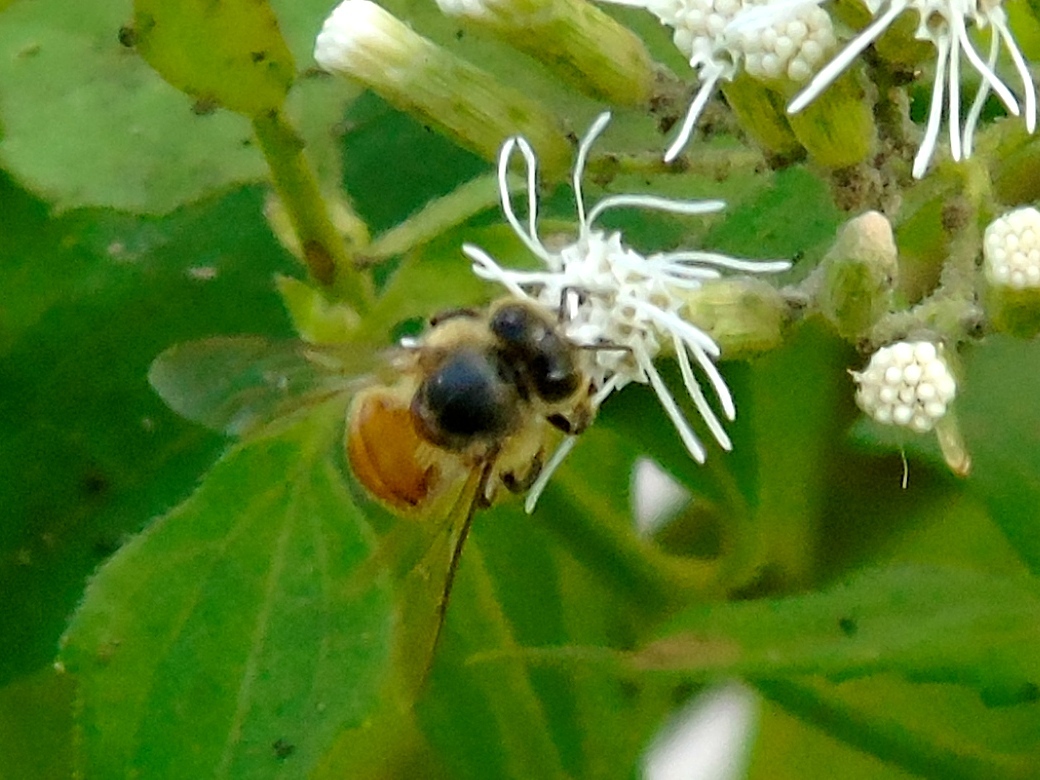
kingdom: Animalia
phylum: Arthropoda
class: Insecta
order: Hymenoptera
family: Apidae
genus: Apis
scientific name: Apis mellifera
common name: Honey bee
